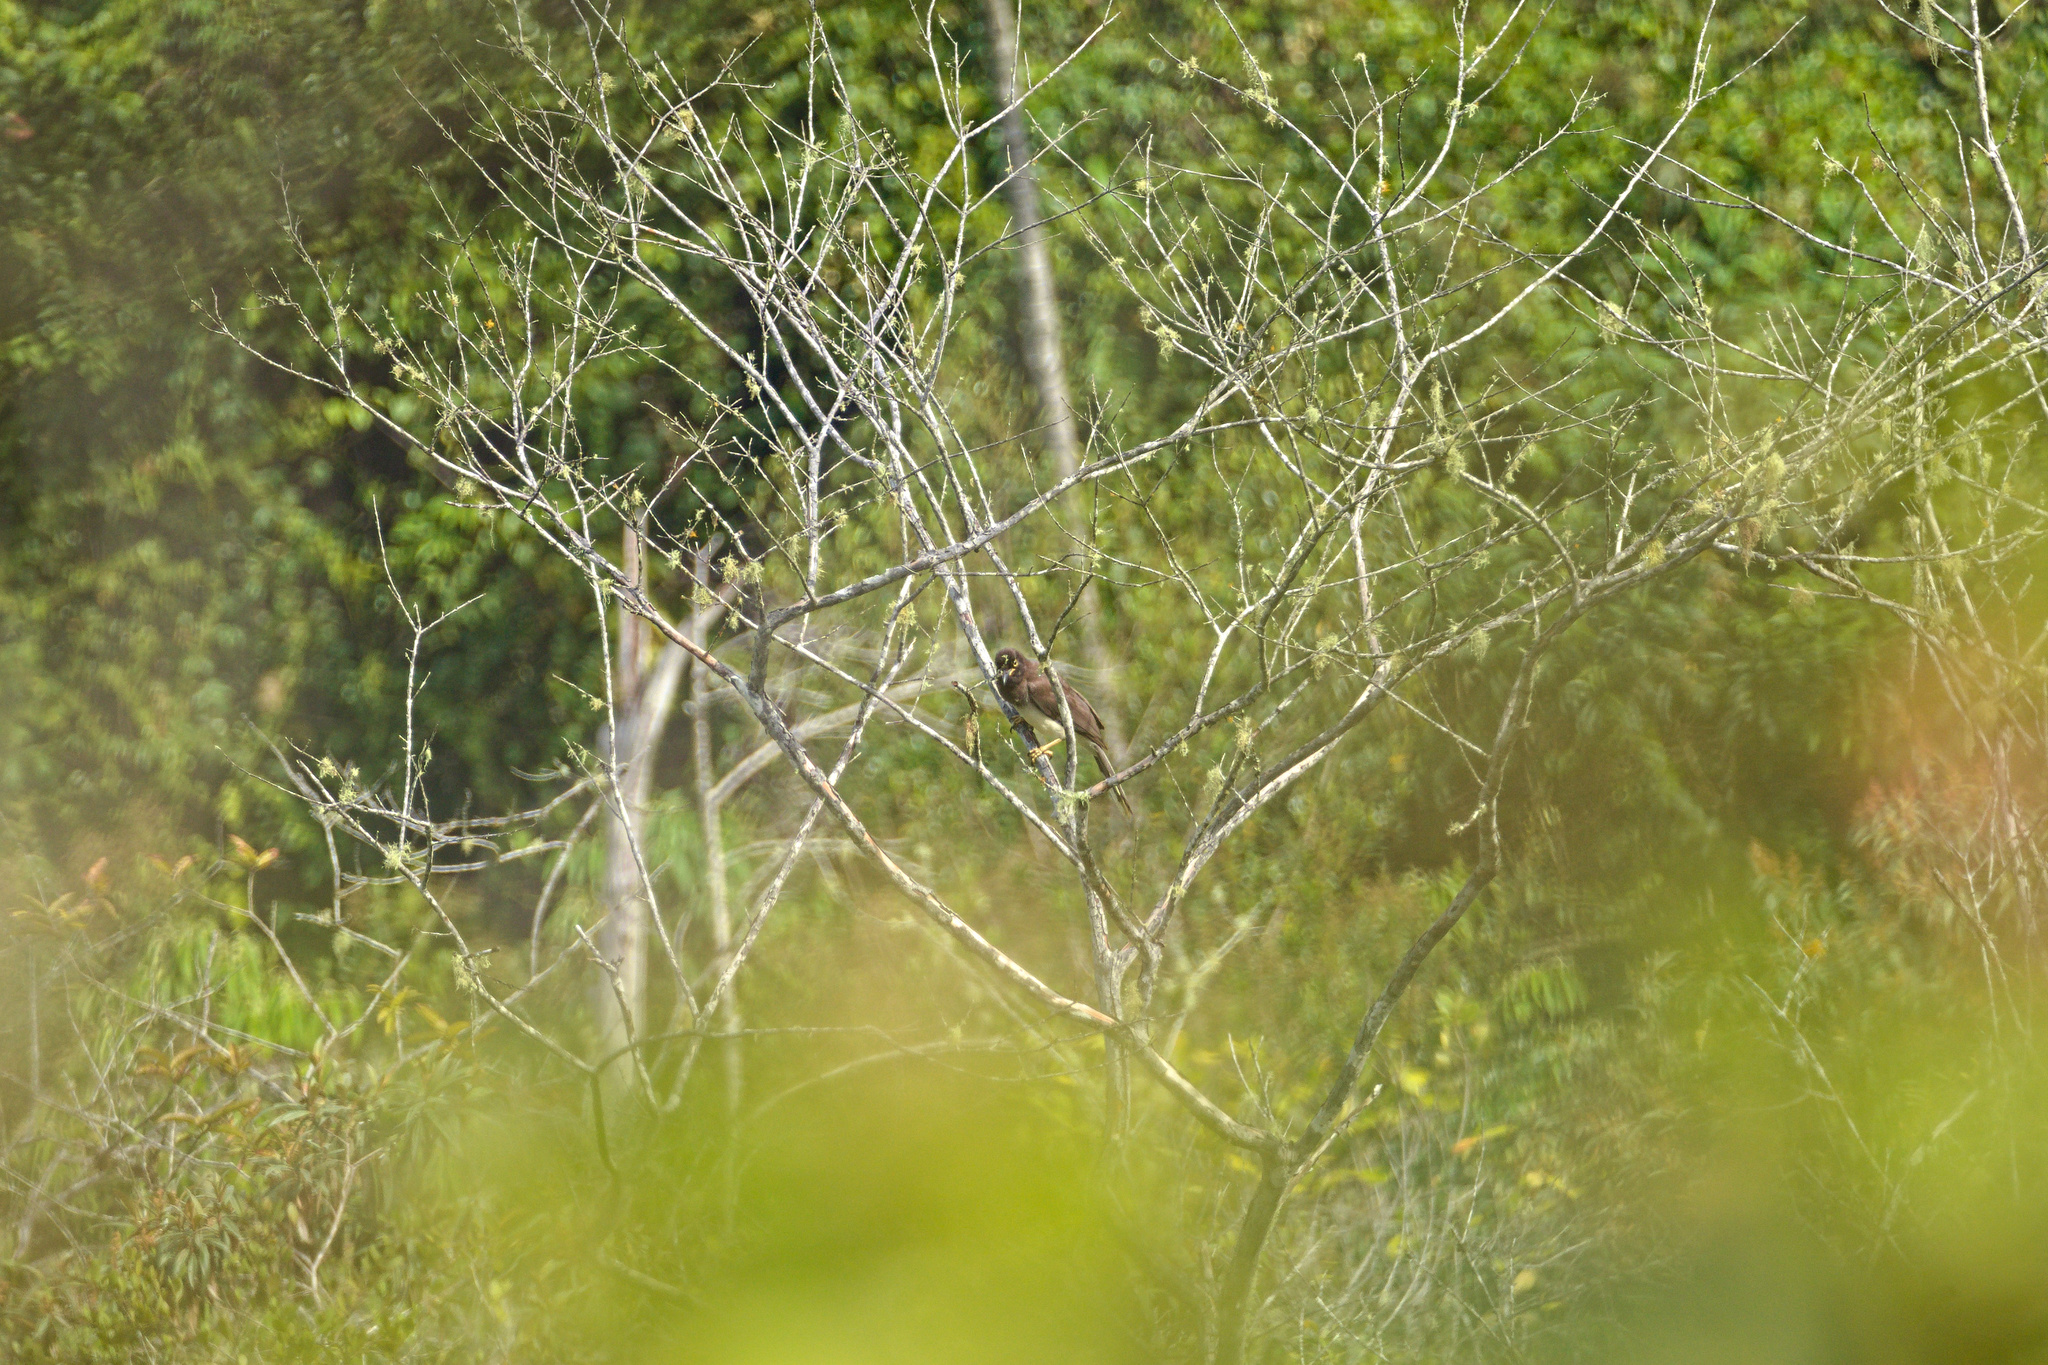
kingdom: Animalia
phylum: Chordata
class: Aves
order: Passeriformes
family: Corvidae
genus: Psilorhinus
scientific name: Psilorhinus morio
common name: Brown jay
